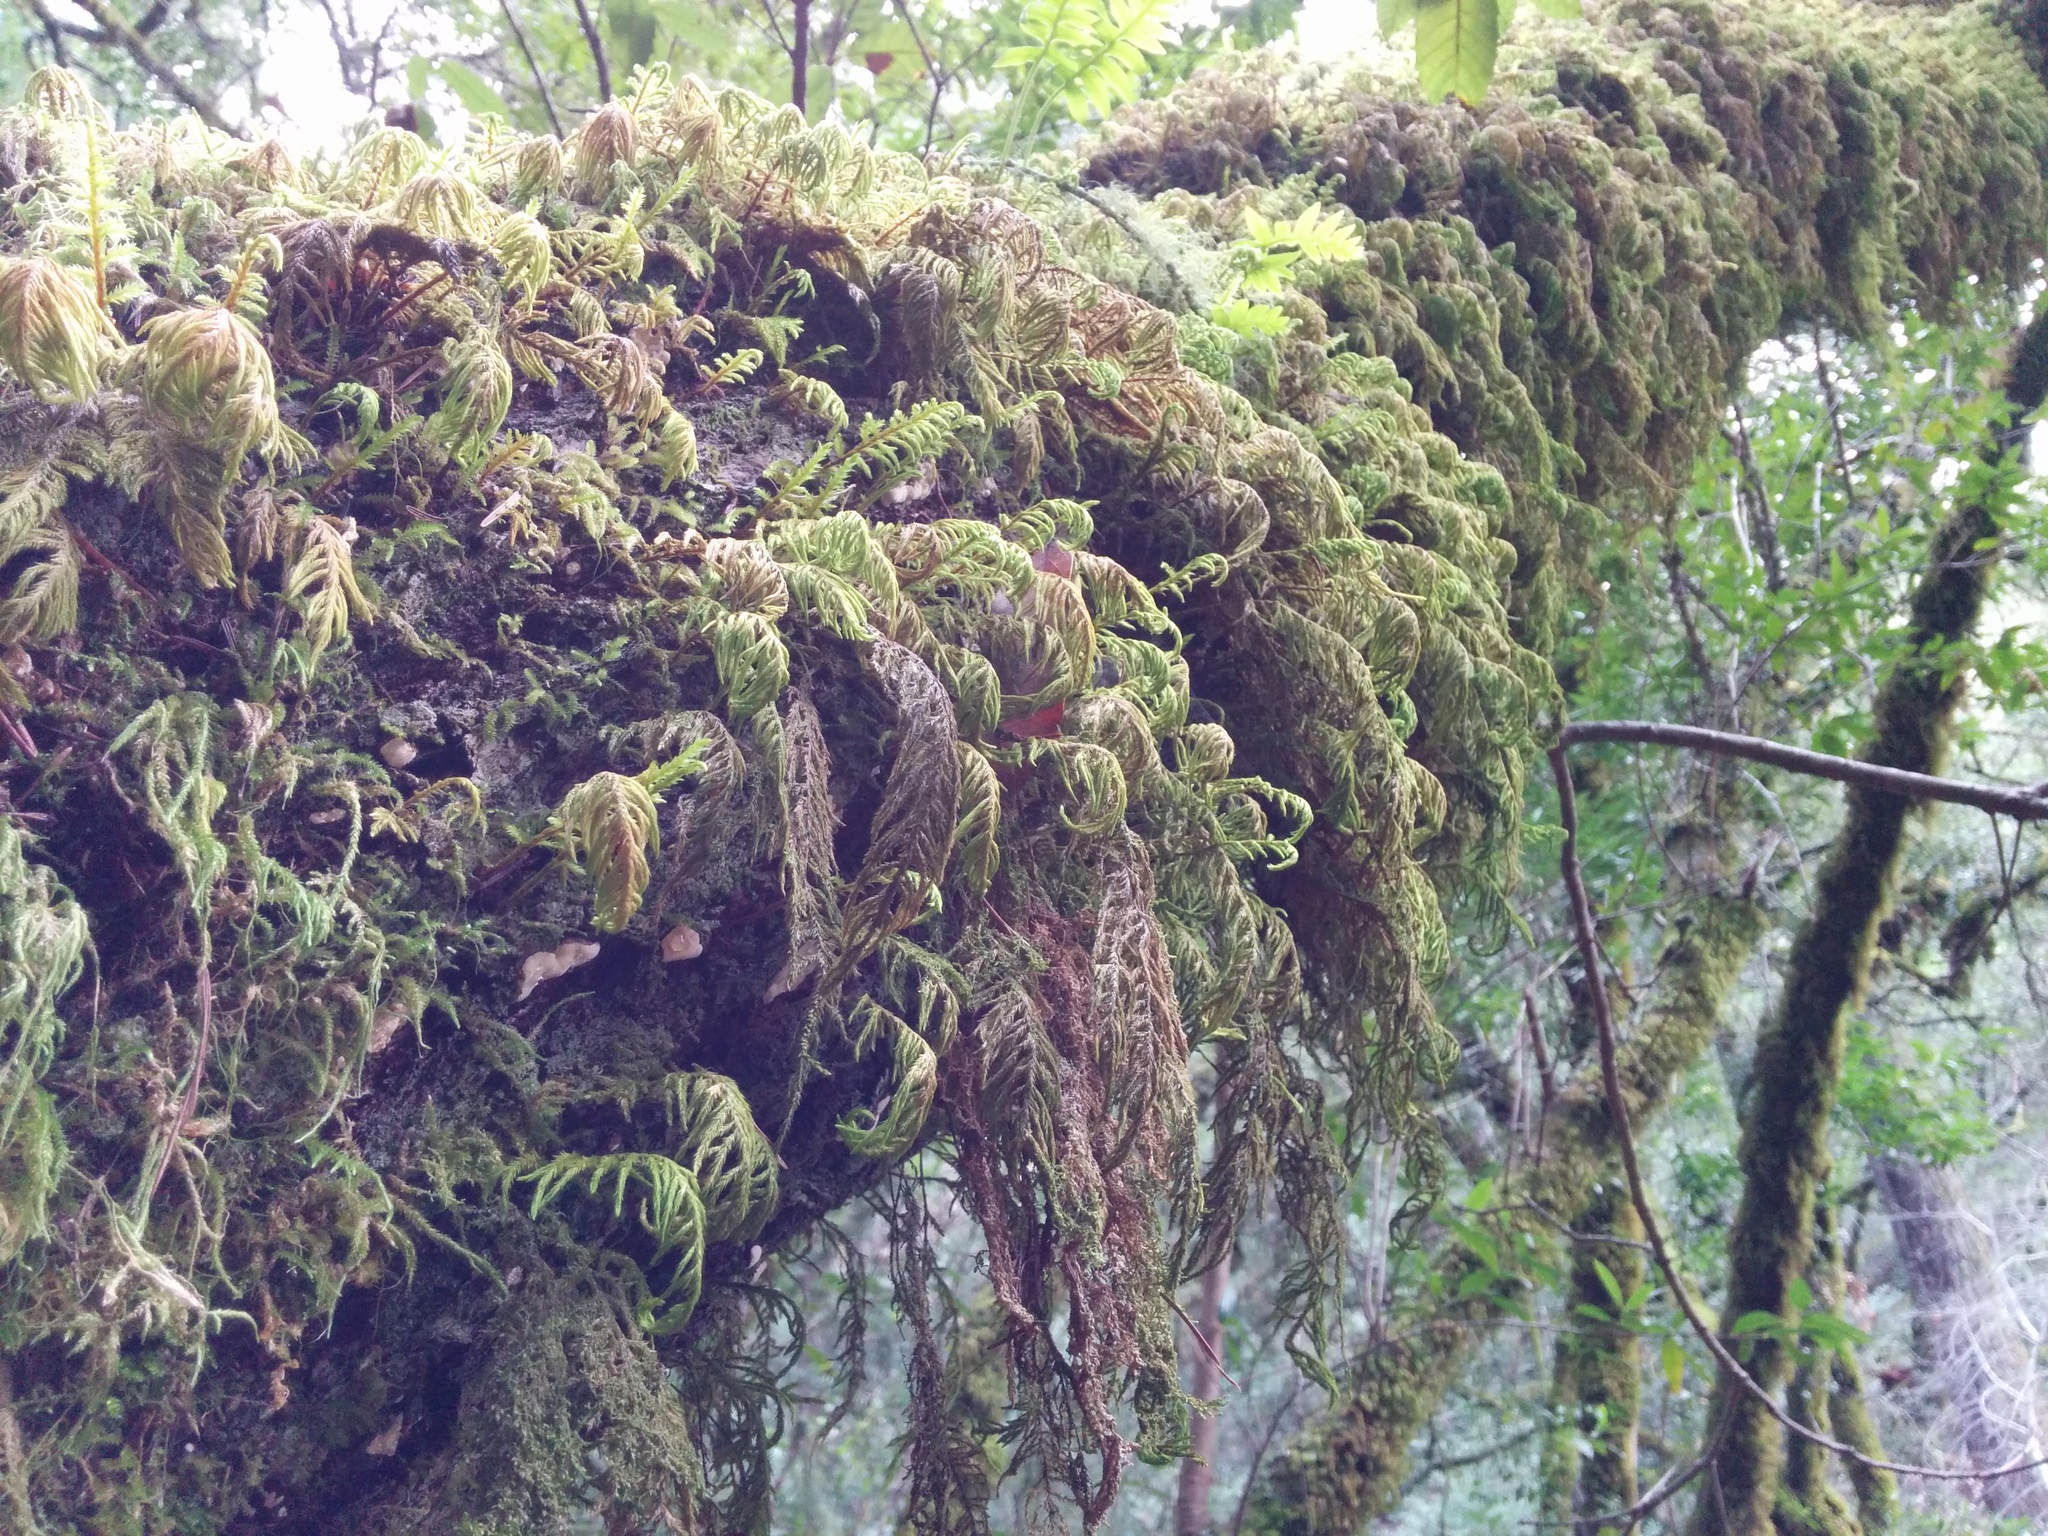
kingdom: Plantae
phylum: Bryophyta
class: Bryopsida
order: Hypnales
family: Cryphaeaceae
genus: Dendroalsia
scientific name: Dendroalsia abietina
